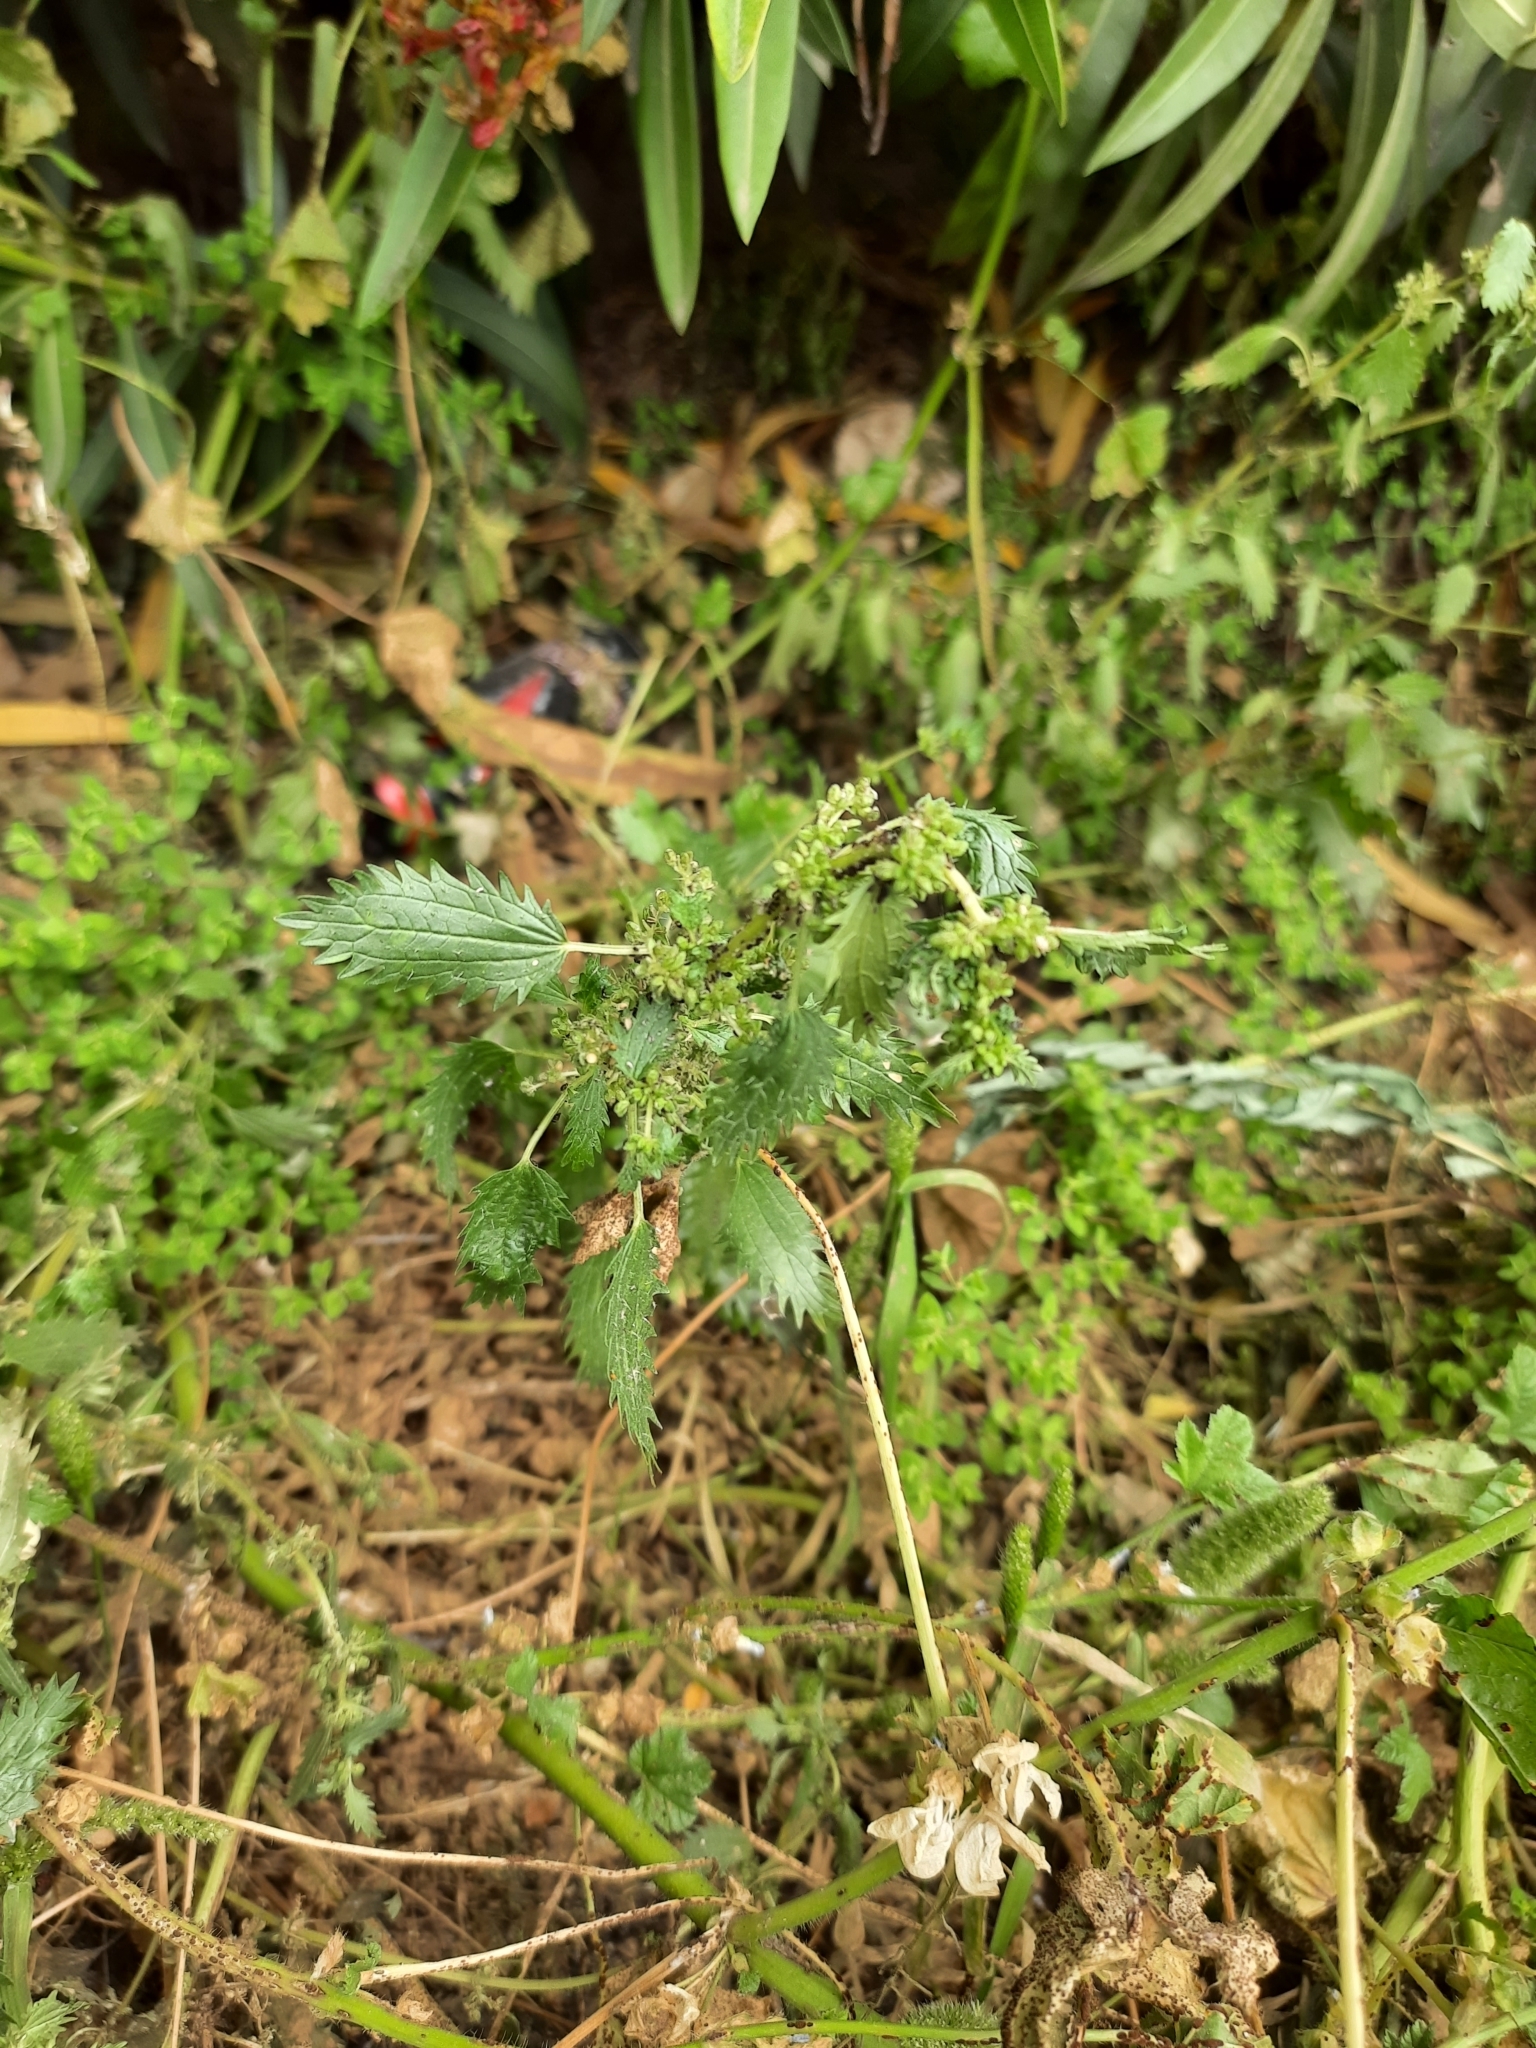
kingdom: Plantae
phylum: Tracheophyta
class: Magnoliopsida
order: Rosales
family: Urticaceae
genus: Urtica
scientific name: Urtica urens
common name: Dwarf nettle
